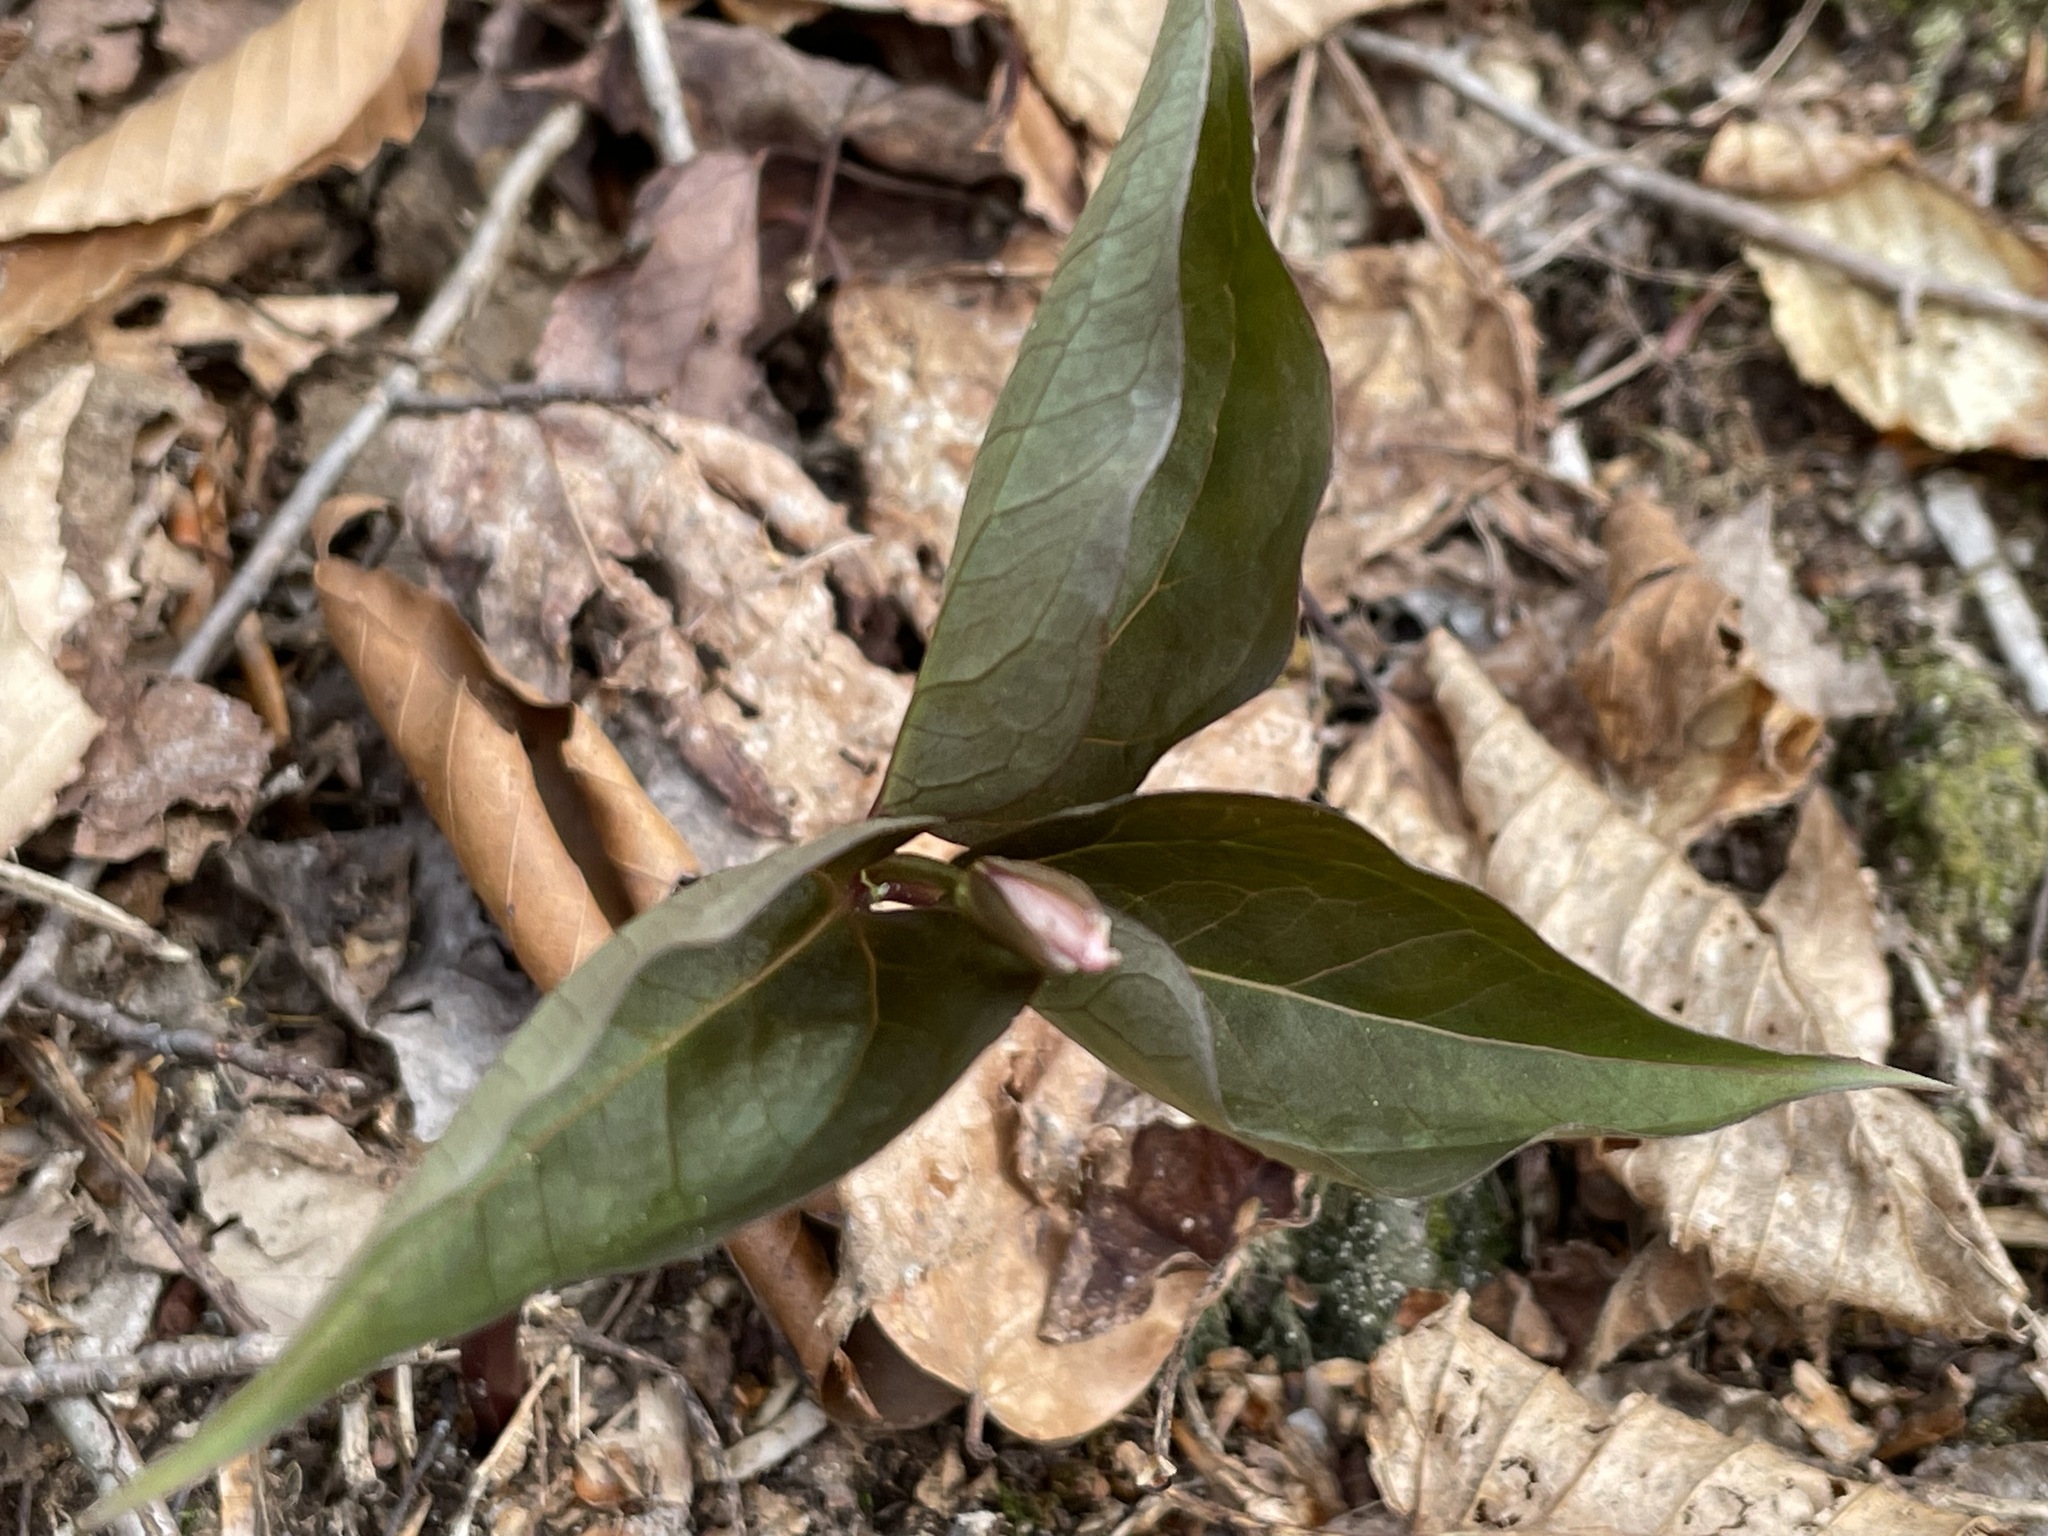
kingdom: Plantae
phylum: Tracheophyta
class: Liliopsida
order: Liliales
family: Melanthiaceae
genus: Trillium
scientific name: Trillium undulatum
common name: Paint trillium
